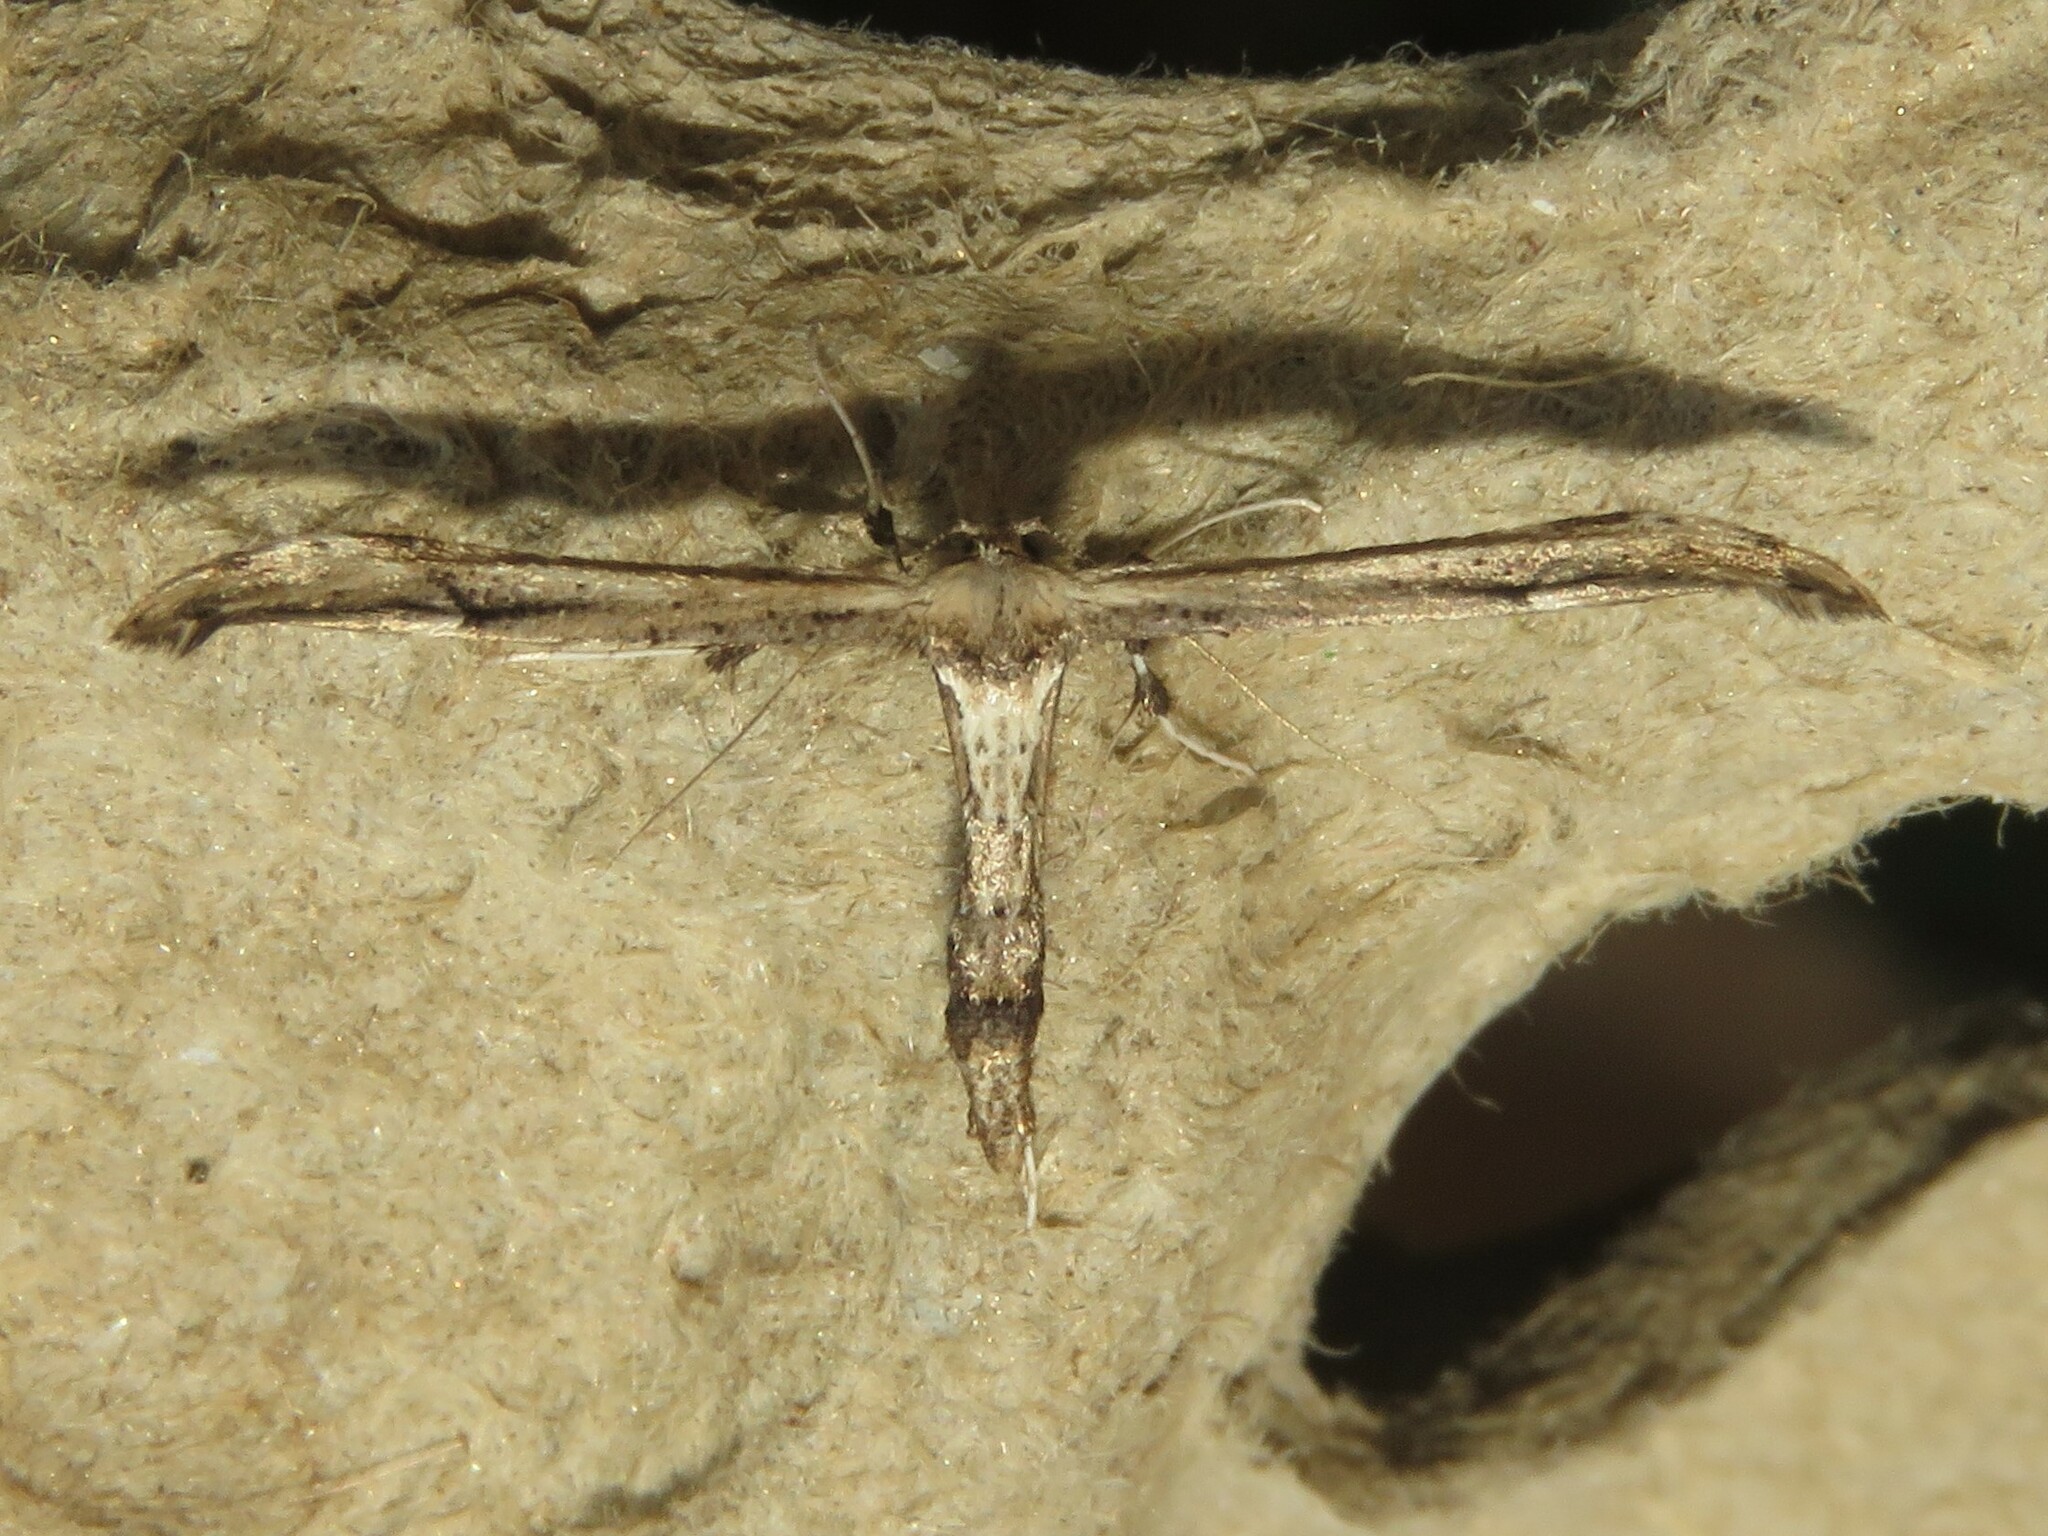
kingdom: Animalia
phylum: Arthropoda
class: Insecta
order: Lepidoptera
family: Pterophoridae
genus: Oidaematophorus
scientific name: Oidaematophorus eupatorii
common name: Eupatorium plume moth
